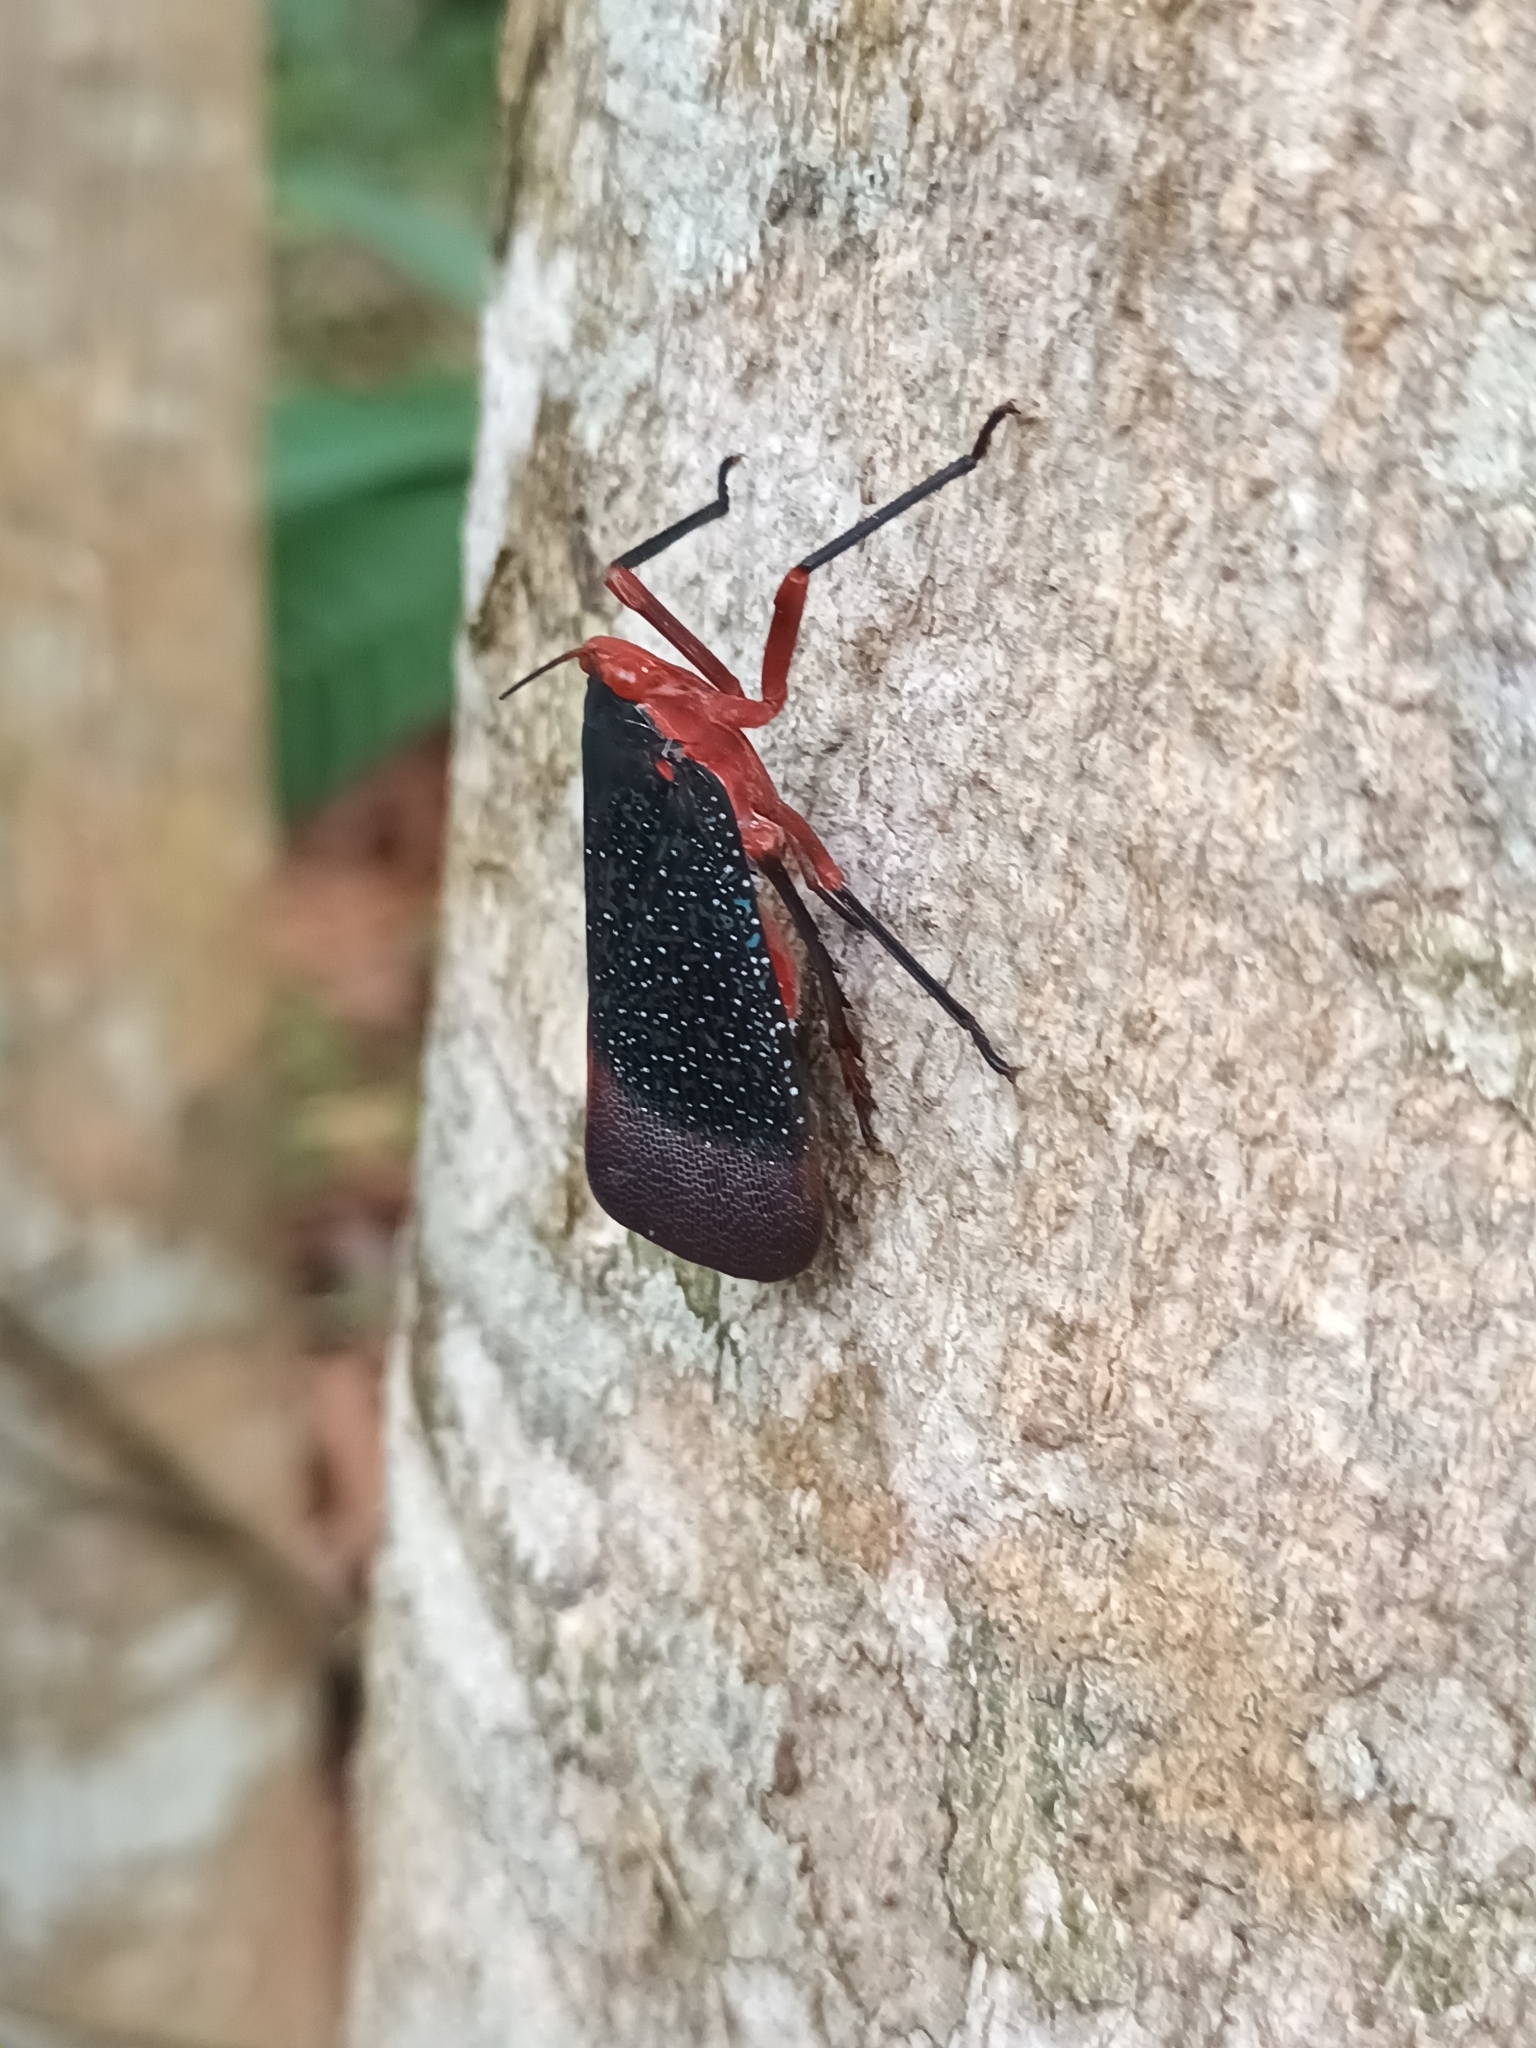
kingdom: Animalia
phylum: Arthropoda
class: Insecta
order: Hemiptera
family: Fulgoridae
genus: Kalidasa
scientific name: Kalidasa lanata
